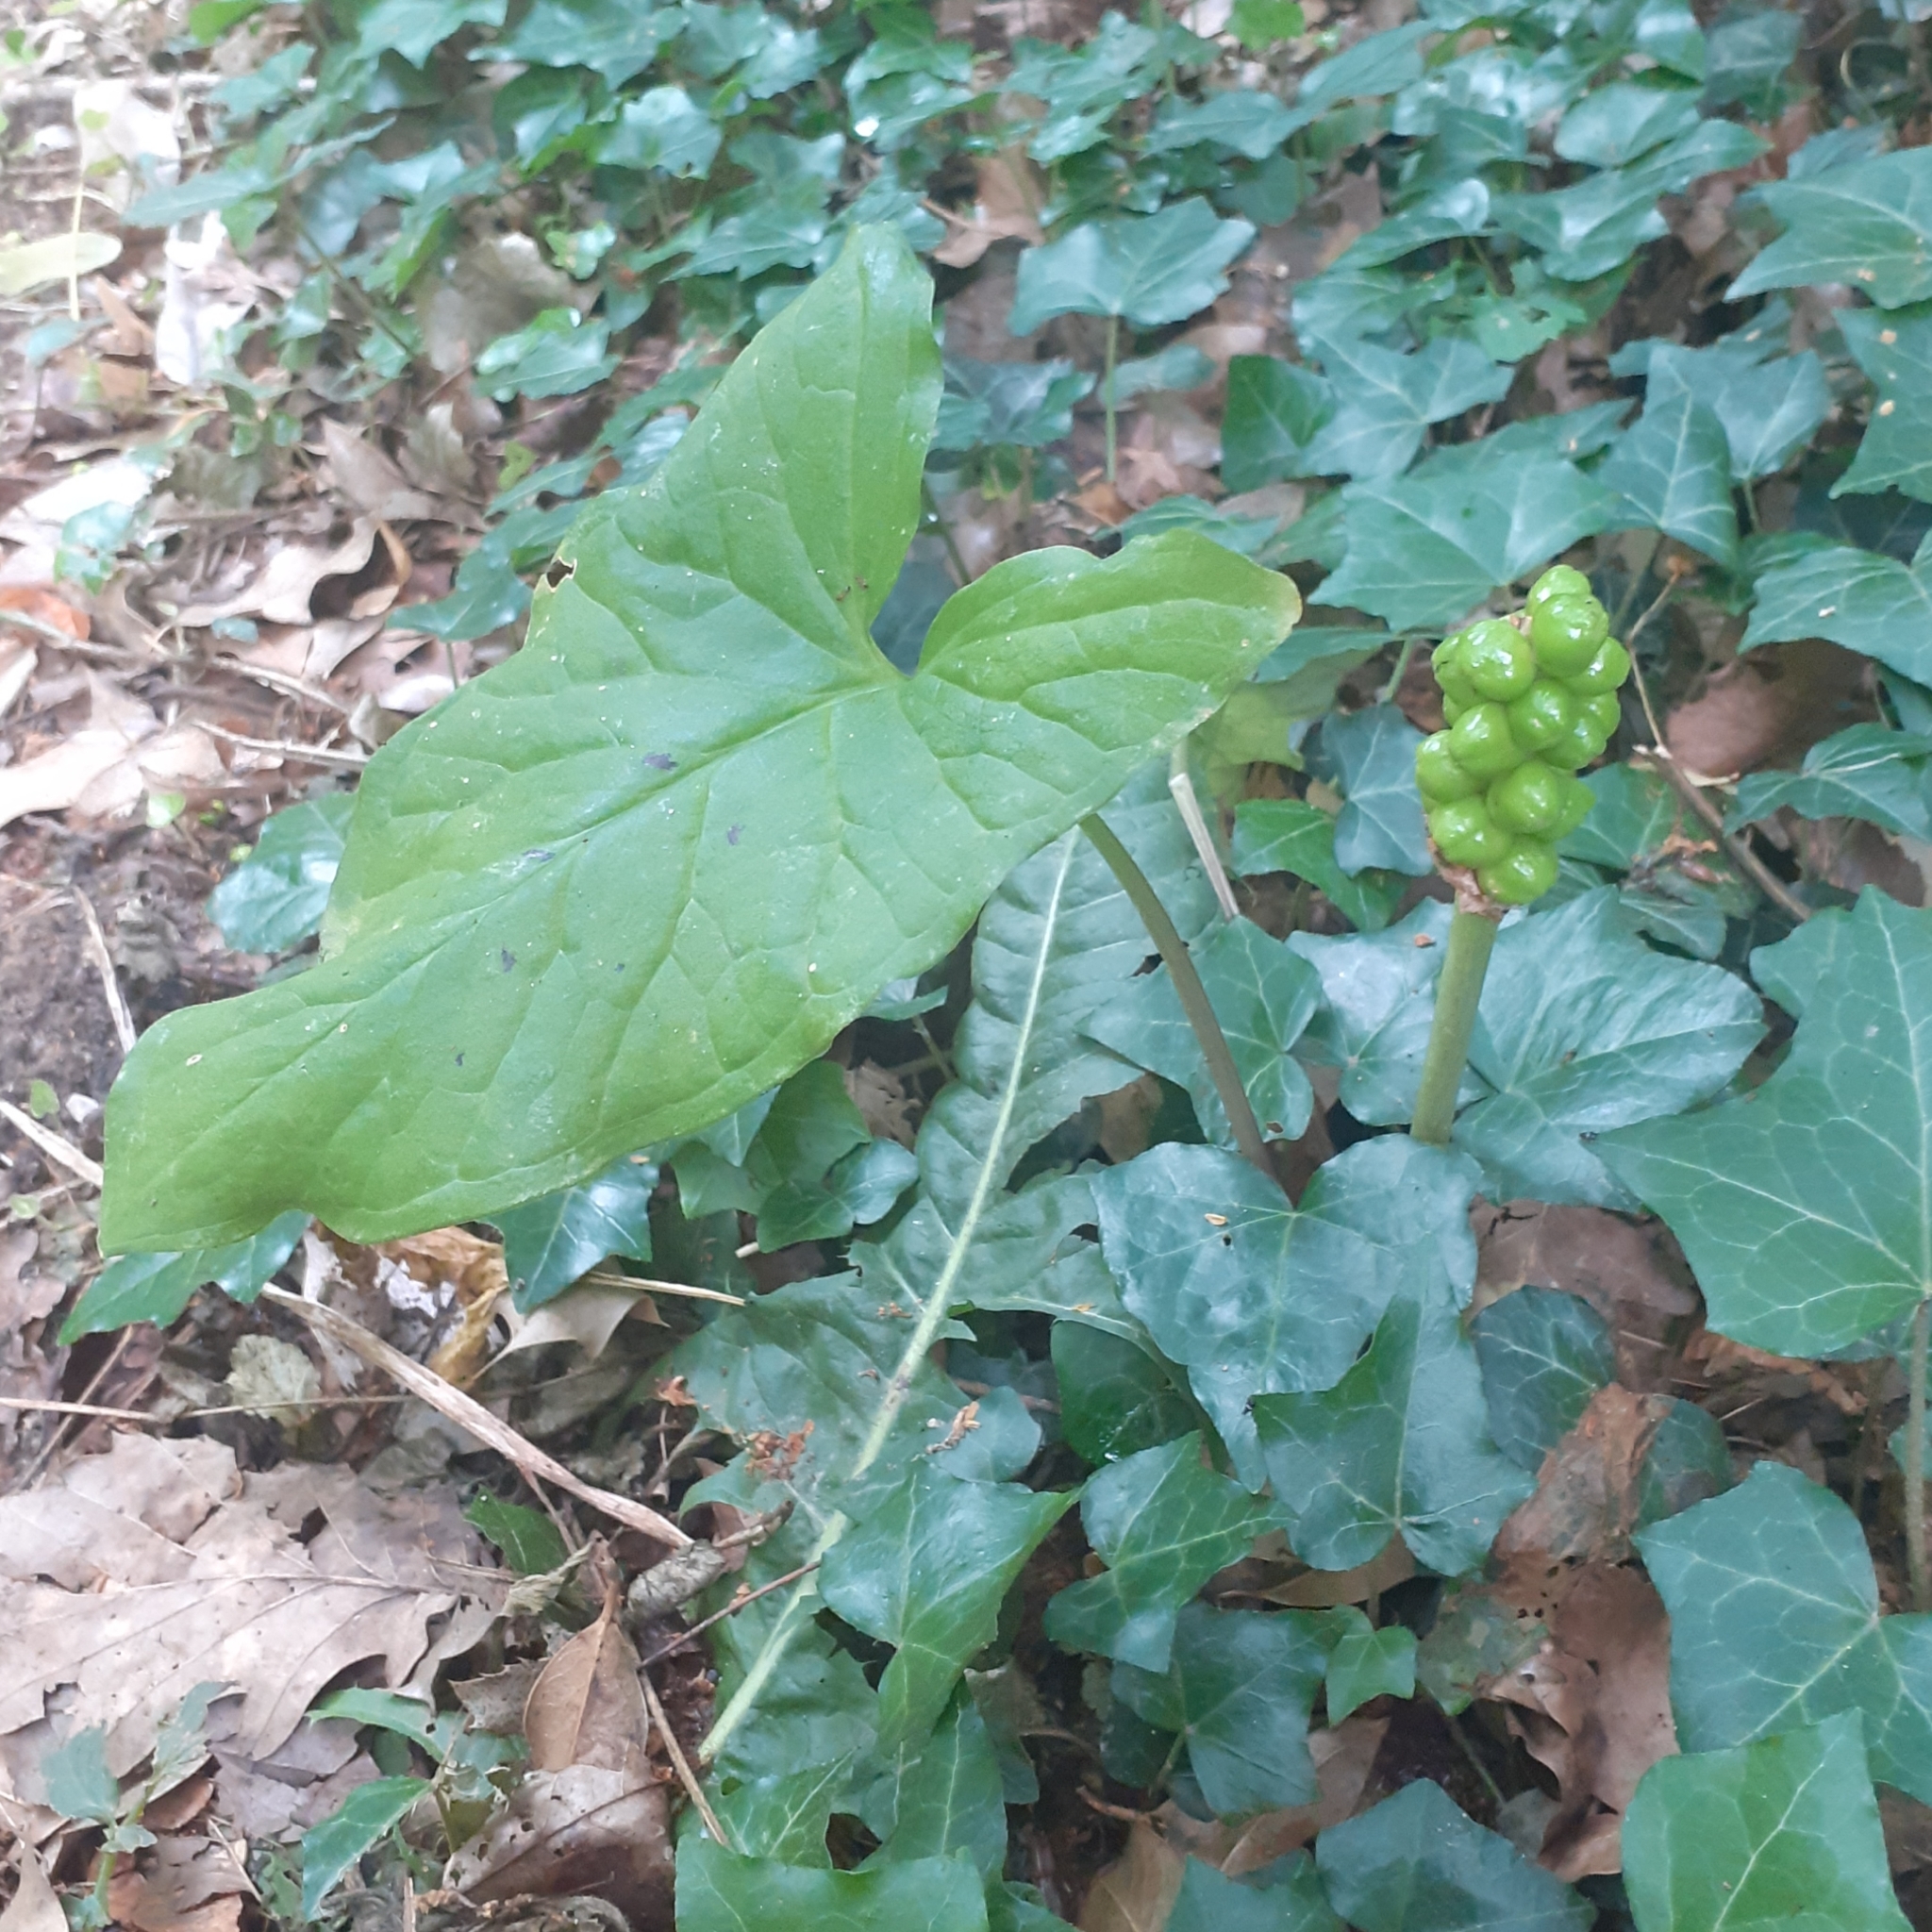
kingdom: Plantae
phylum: Tracheophyta
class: Liliopsida
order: Alismatales
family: Araceae
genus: Arum
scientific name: Arum maculatum
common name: Lords-and-ladies
